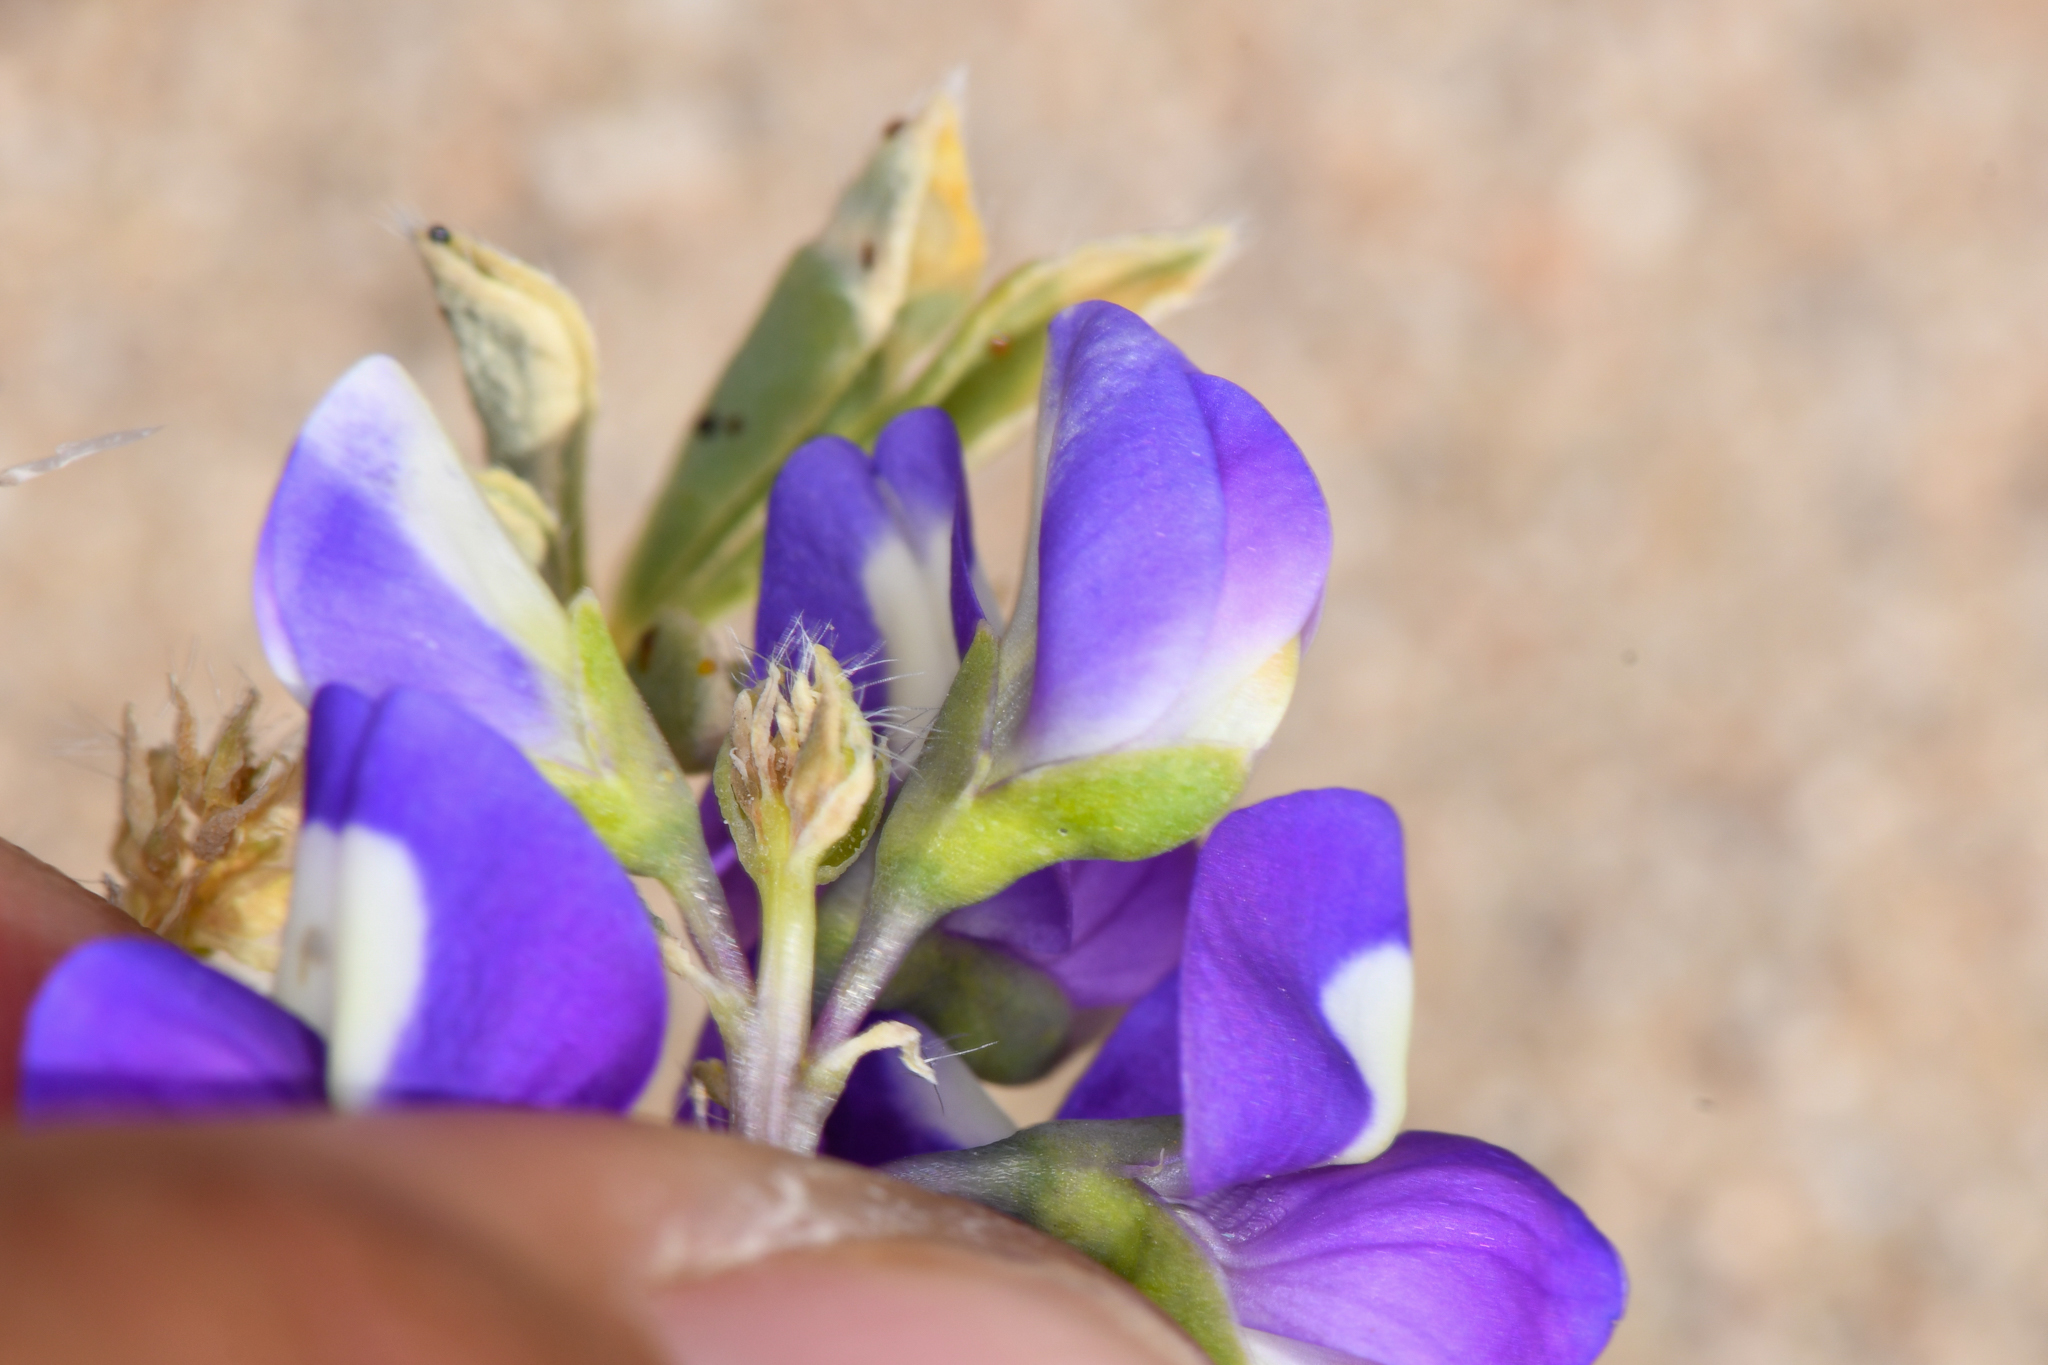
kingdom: Plantae
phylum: Tracheophyta
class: Magnoliopsida
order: Fabales
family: Fabaceae
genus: Lupinus
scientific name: Lupinus
